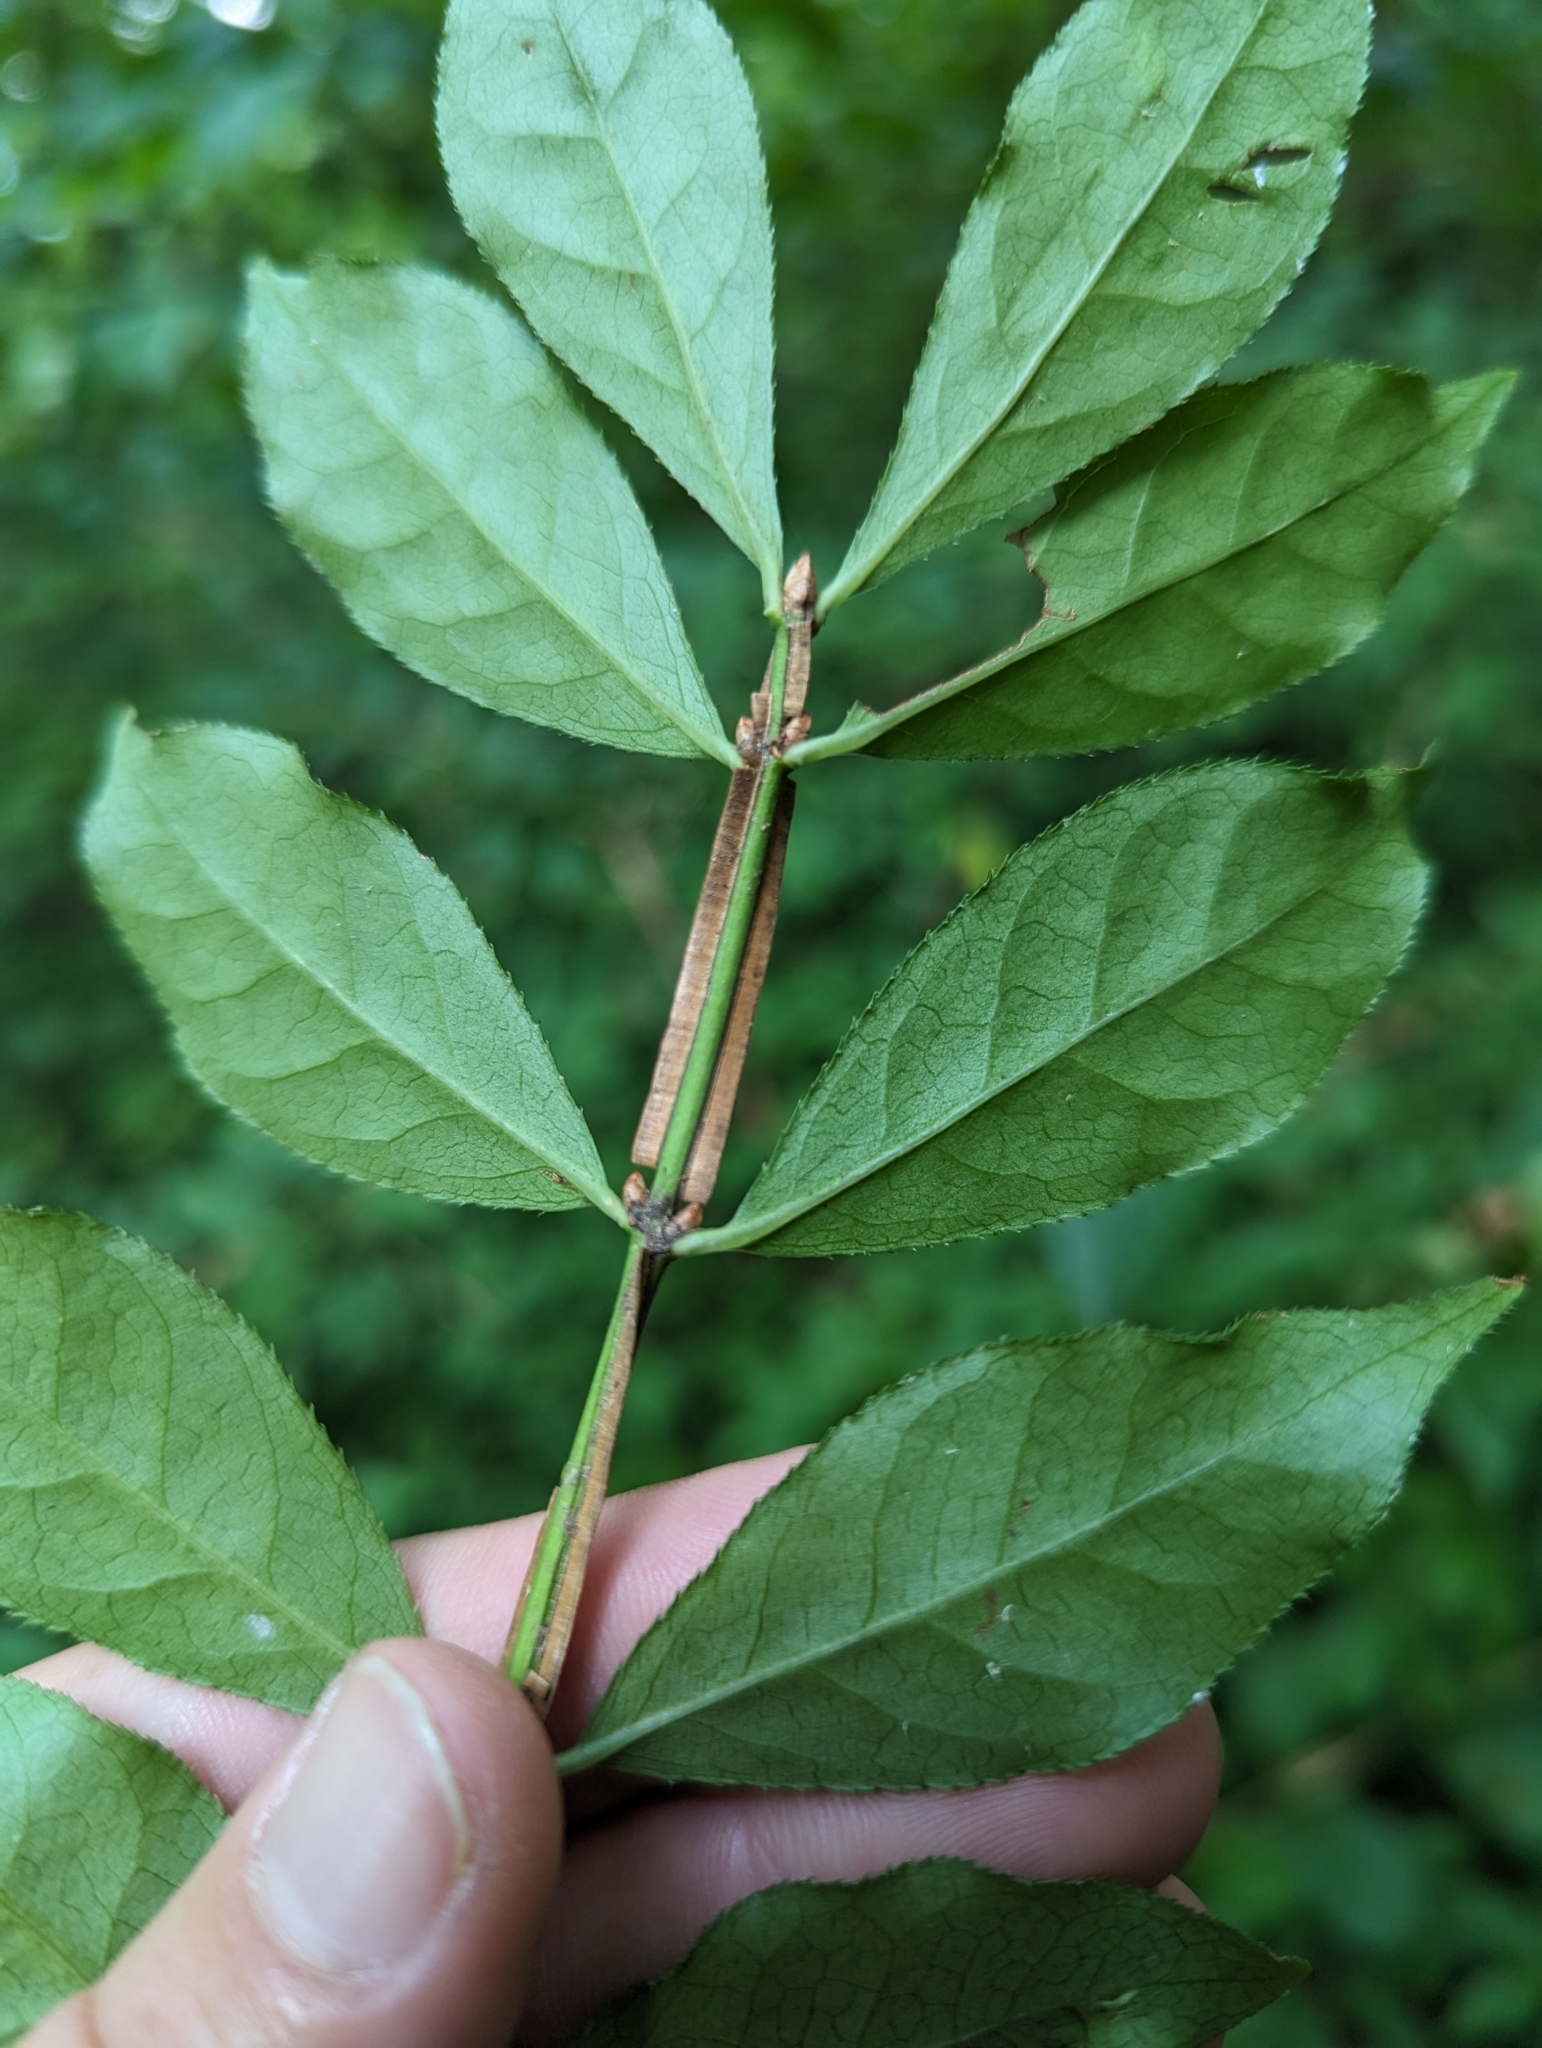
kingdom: Plantae
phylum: Tracheophyta
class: Magnoliopsida
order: Celastrales
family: Celastraceae
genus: Euonymus
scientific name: Euonymus alatus
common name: Winged euonymus
